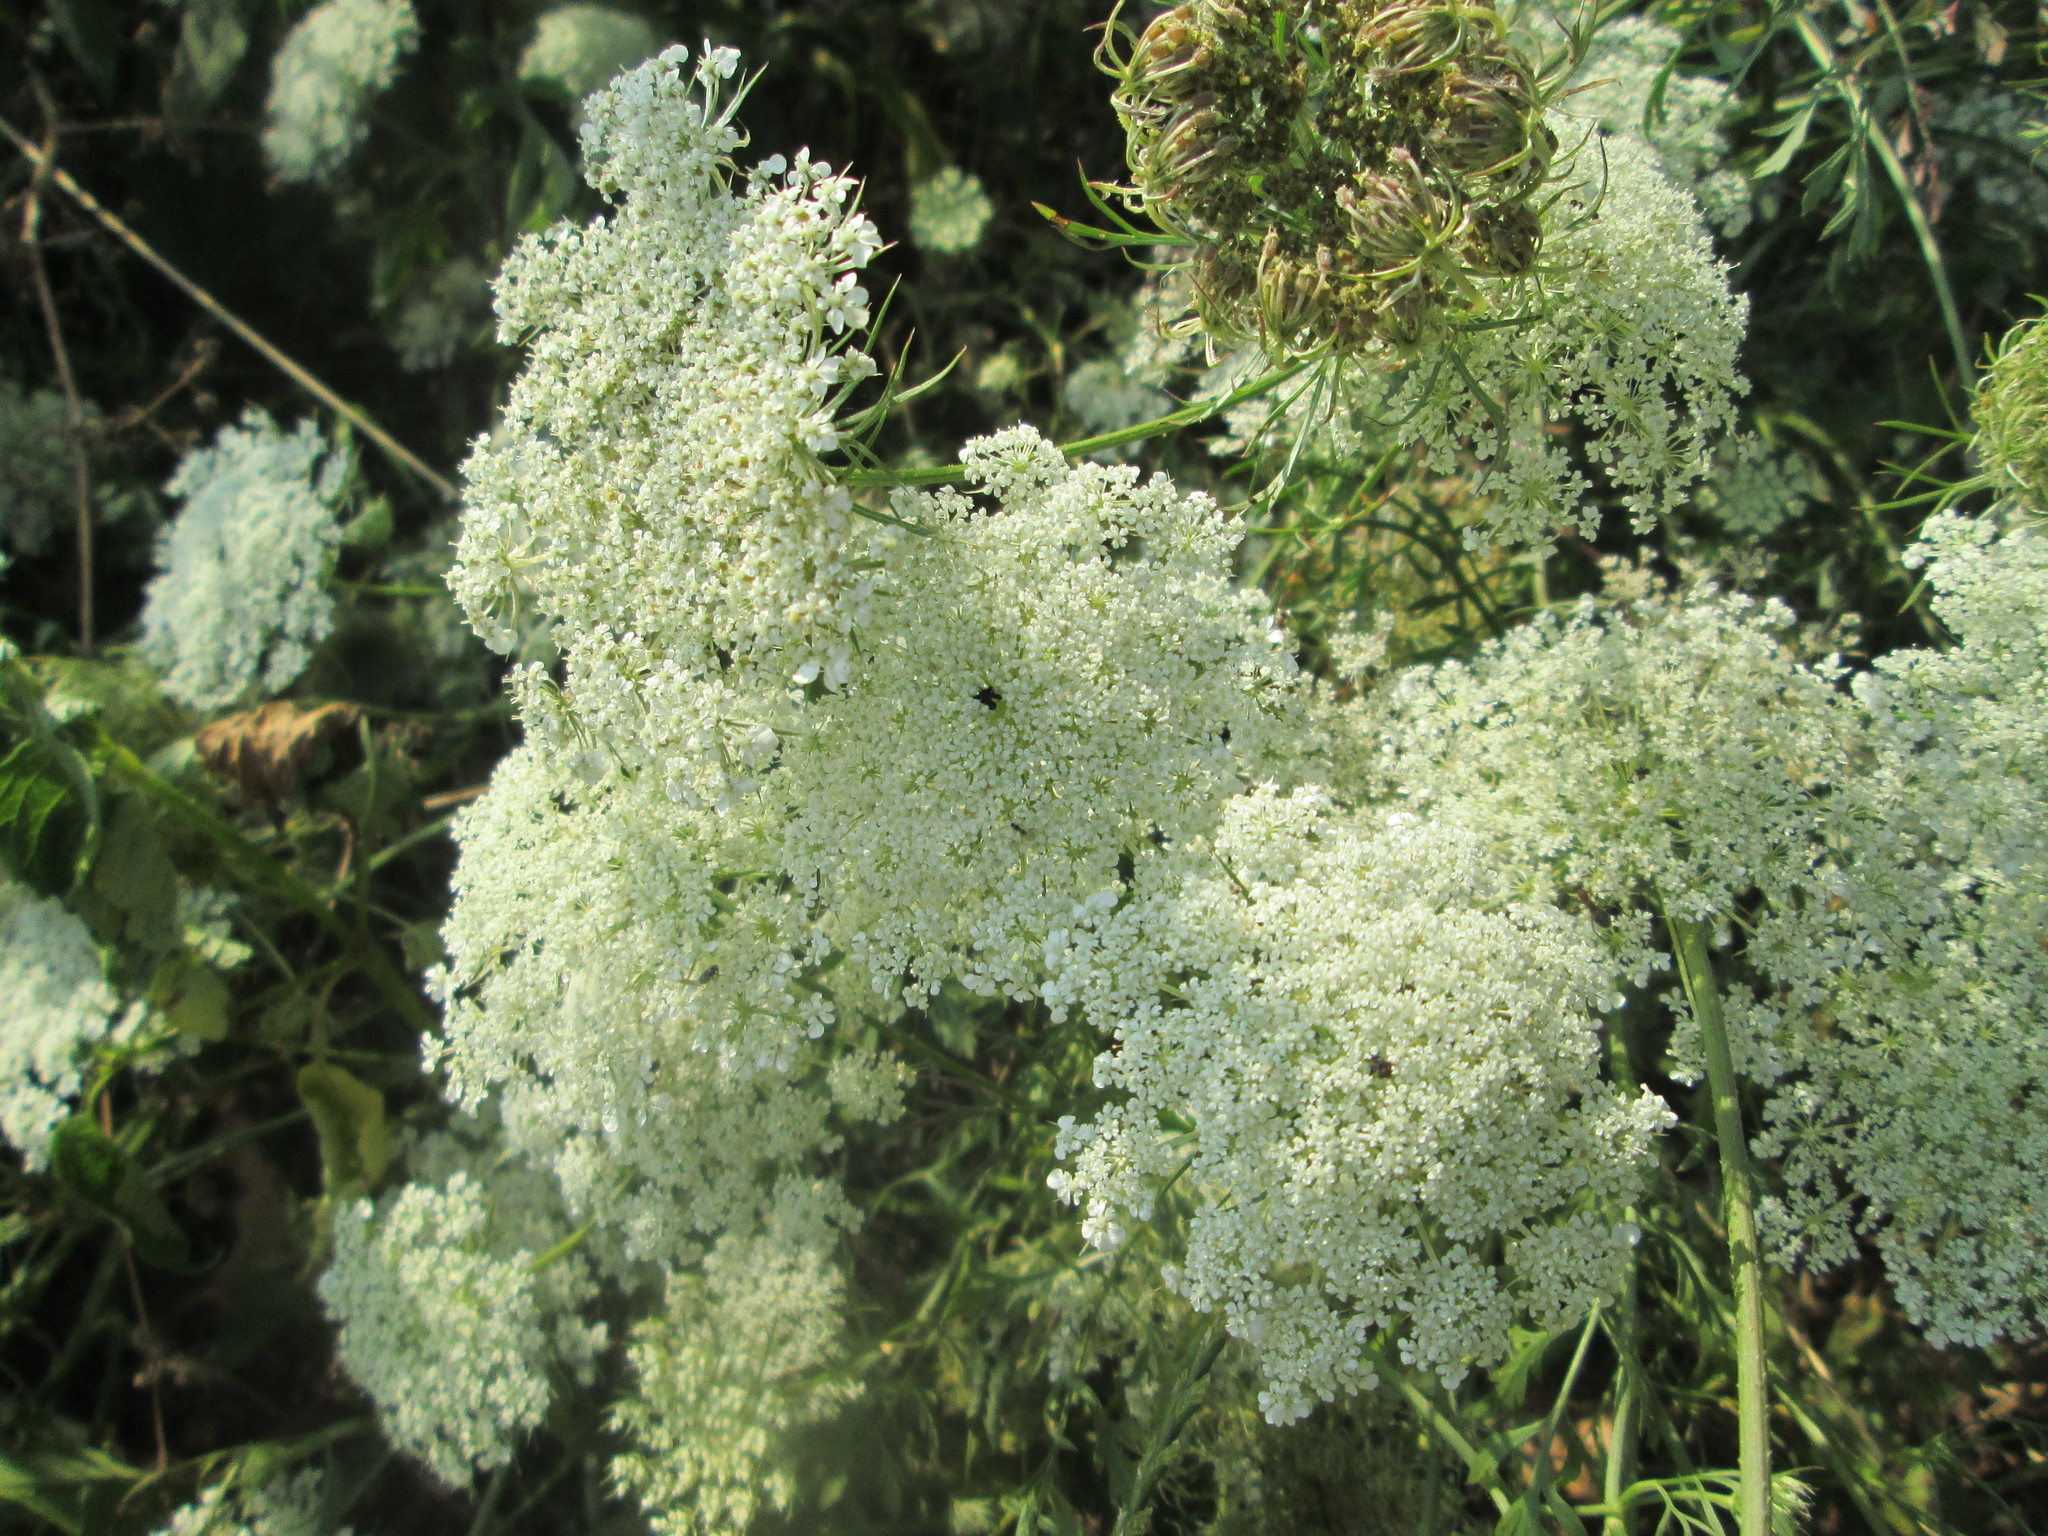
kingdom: Plantae
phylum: Tracheophyta
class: Magnoliopsida
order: Apiales
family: Apiaceae
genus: Daucus
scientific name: Daucus carota
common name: Wild carrot
